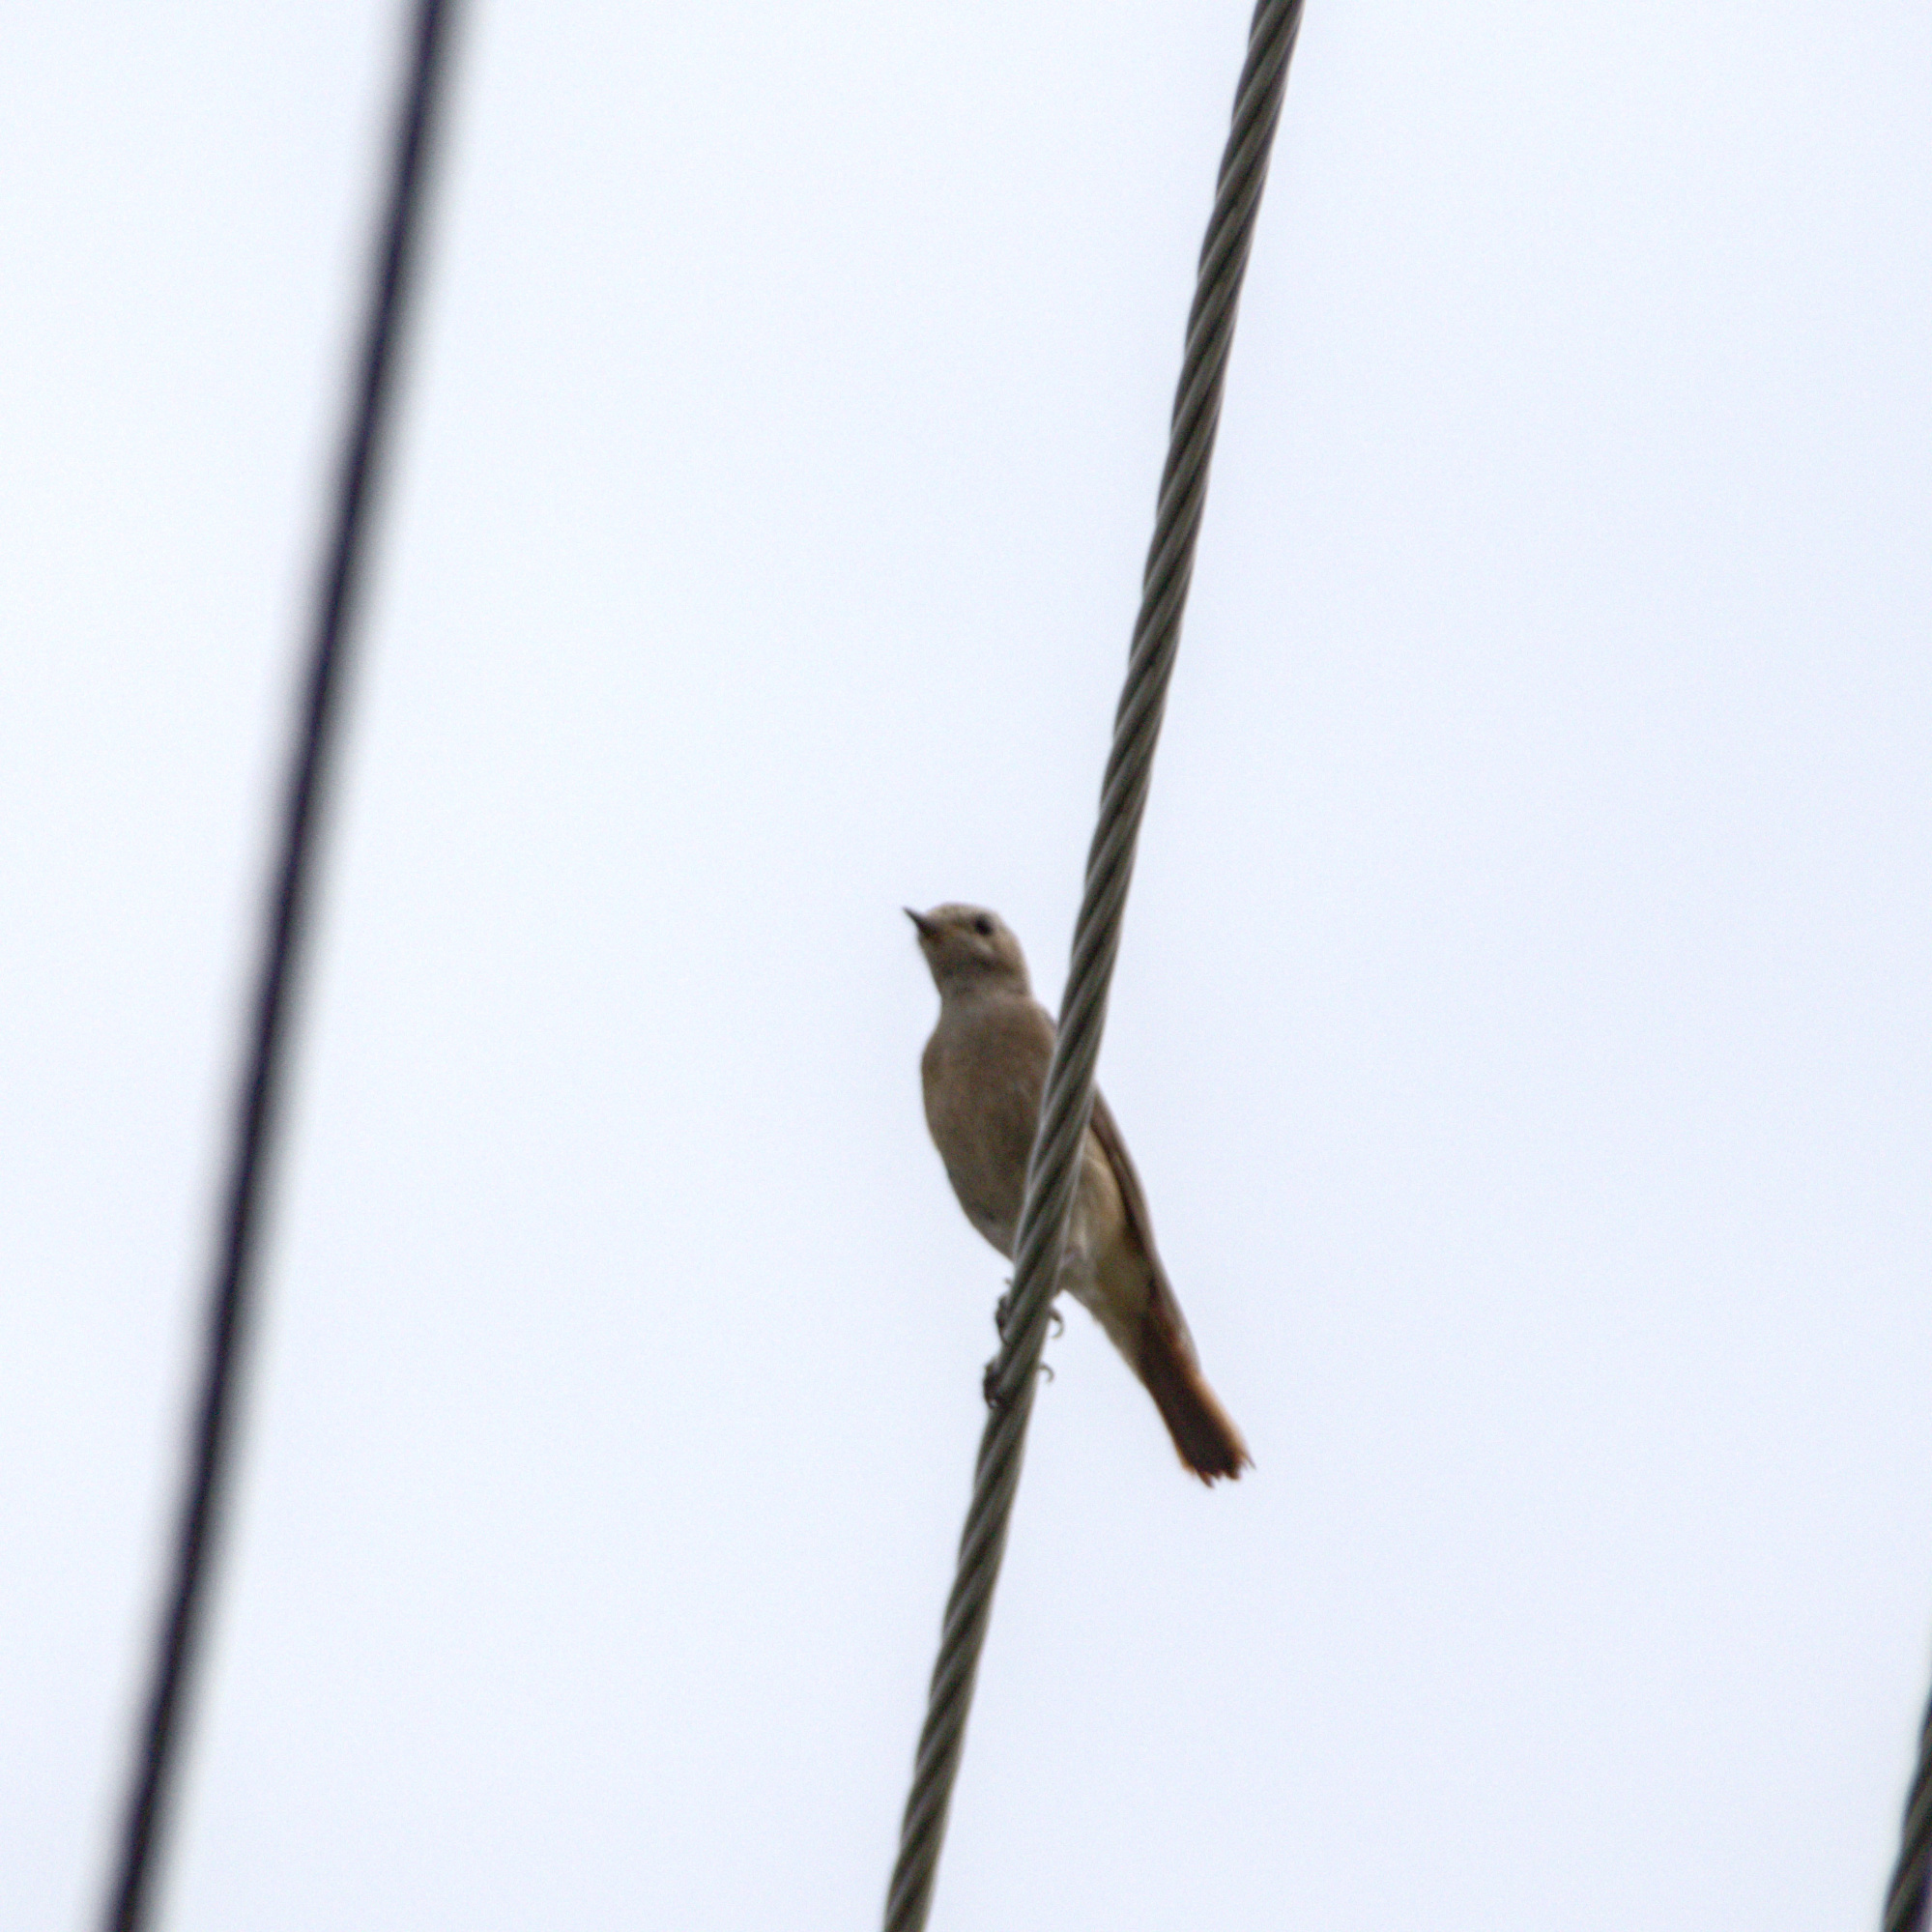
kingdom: Animalia
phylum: Chordata
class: Aves
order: Passeriformes
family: Muscicapidae
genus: Phoenicurus
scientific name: Phoenicurus ochruros
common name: Black redstart
